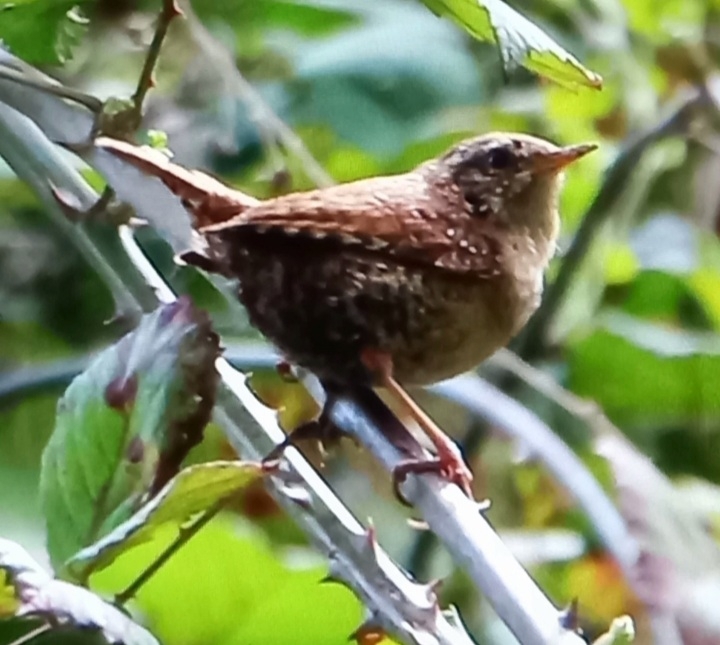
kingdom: Animalia
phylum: Chordata
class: Aves
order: Passeriformes
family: Troglodytidae
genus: Troglodytes
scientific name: Troglodytes troglodytes
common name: Eurasian wren
